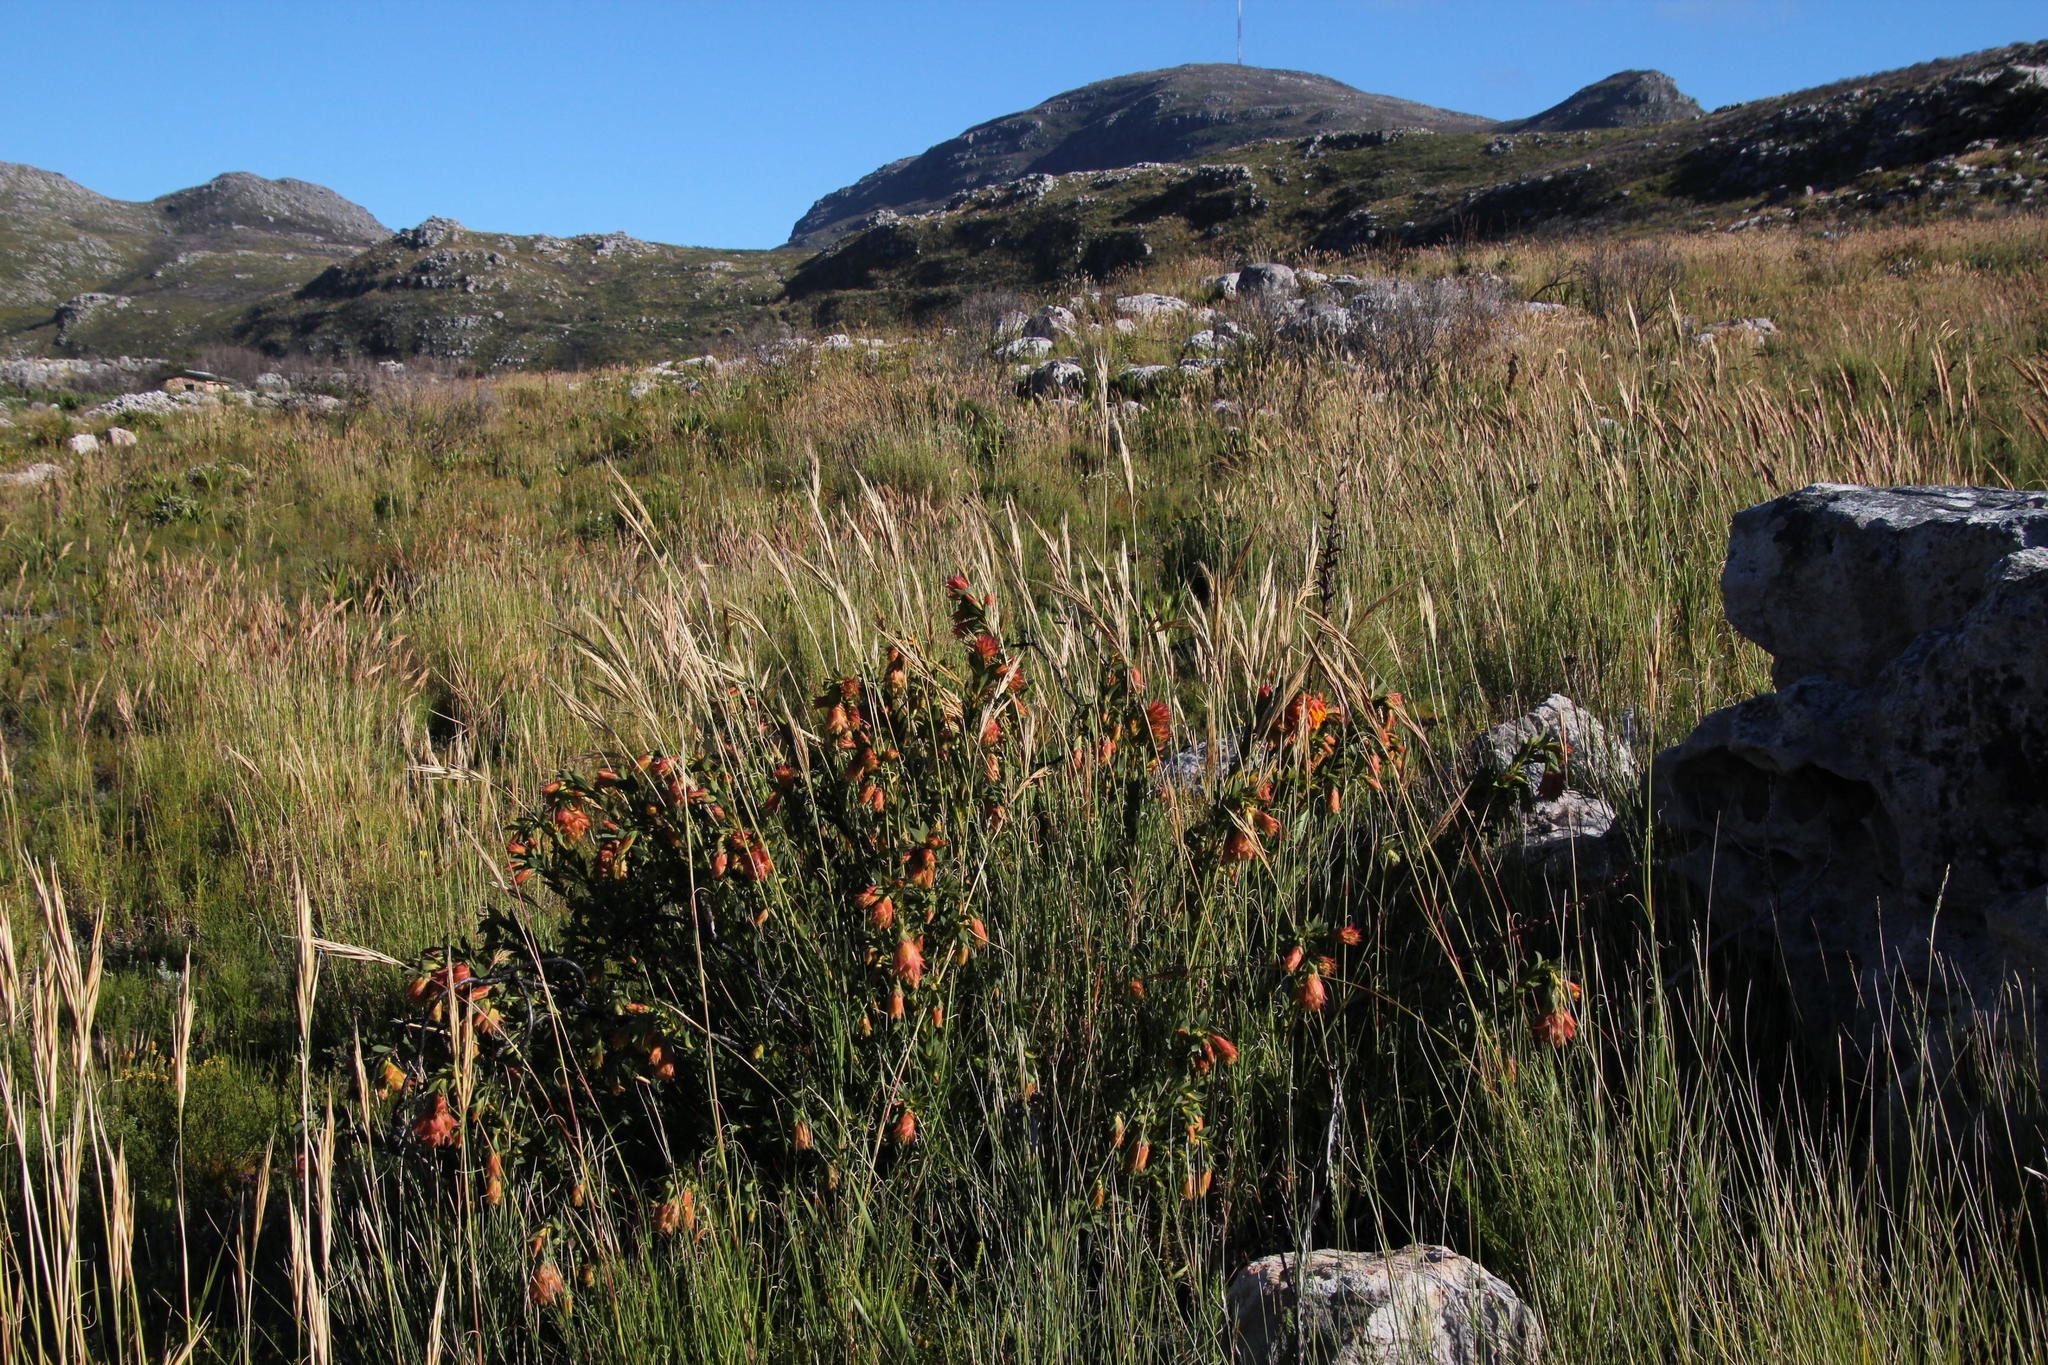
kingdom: Plantae
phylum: Tracheophyta
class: Magnoliopsida
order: Fabales
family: Fabaceae
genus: Liparia
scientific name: Liparia splendens
